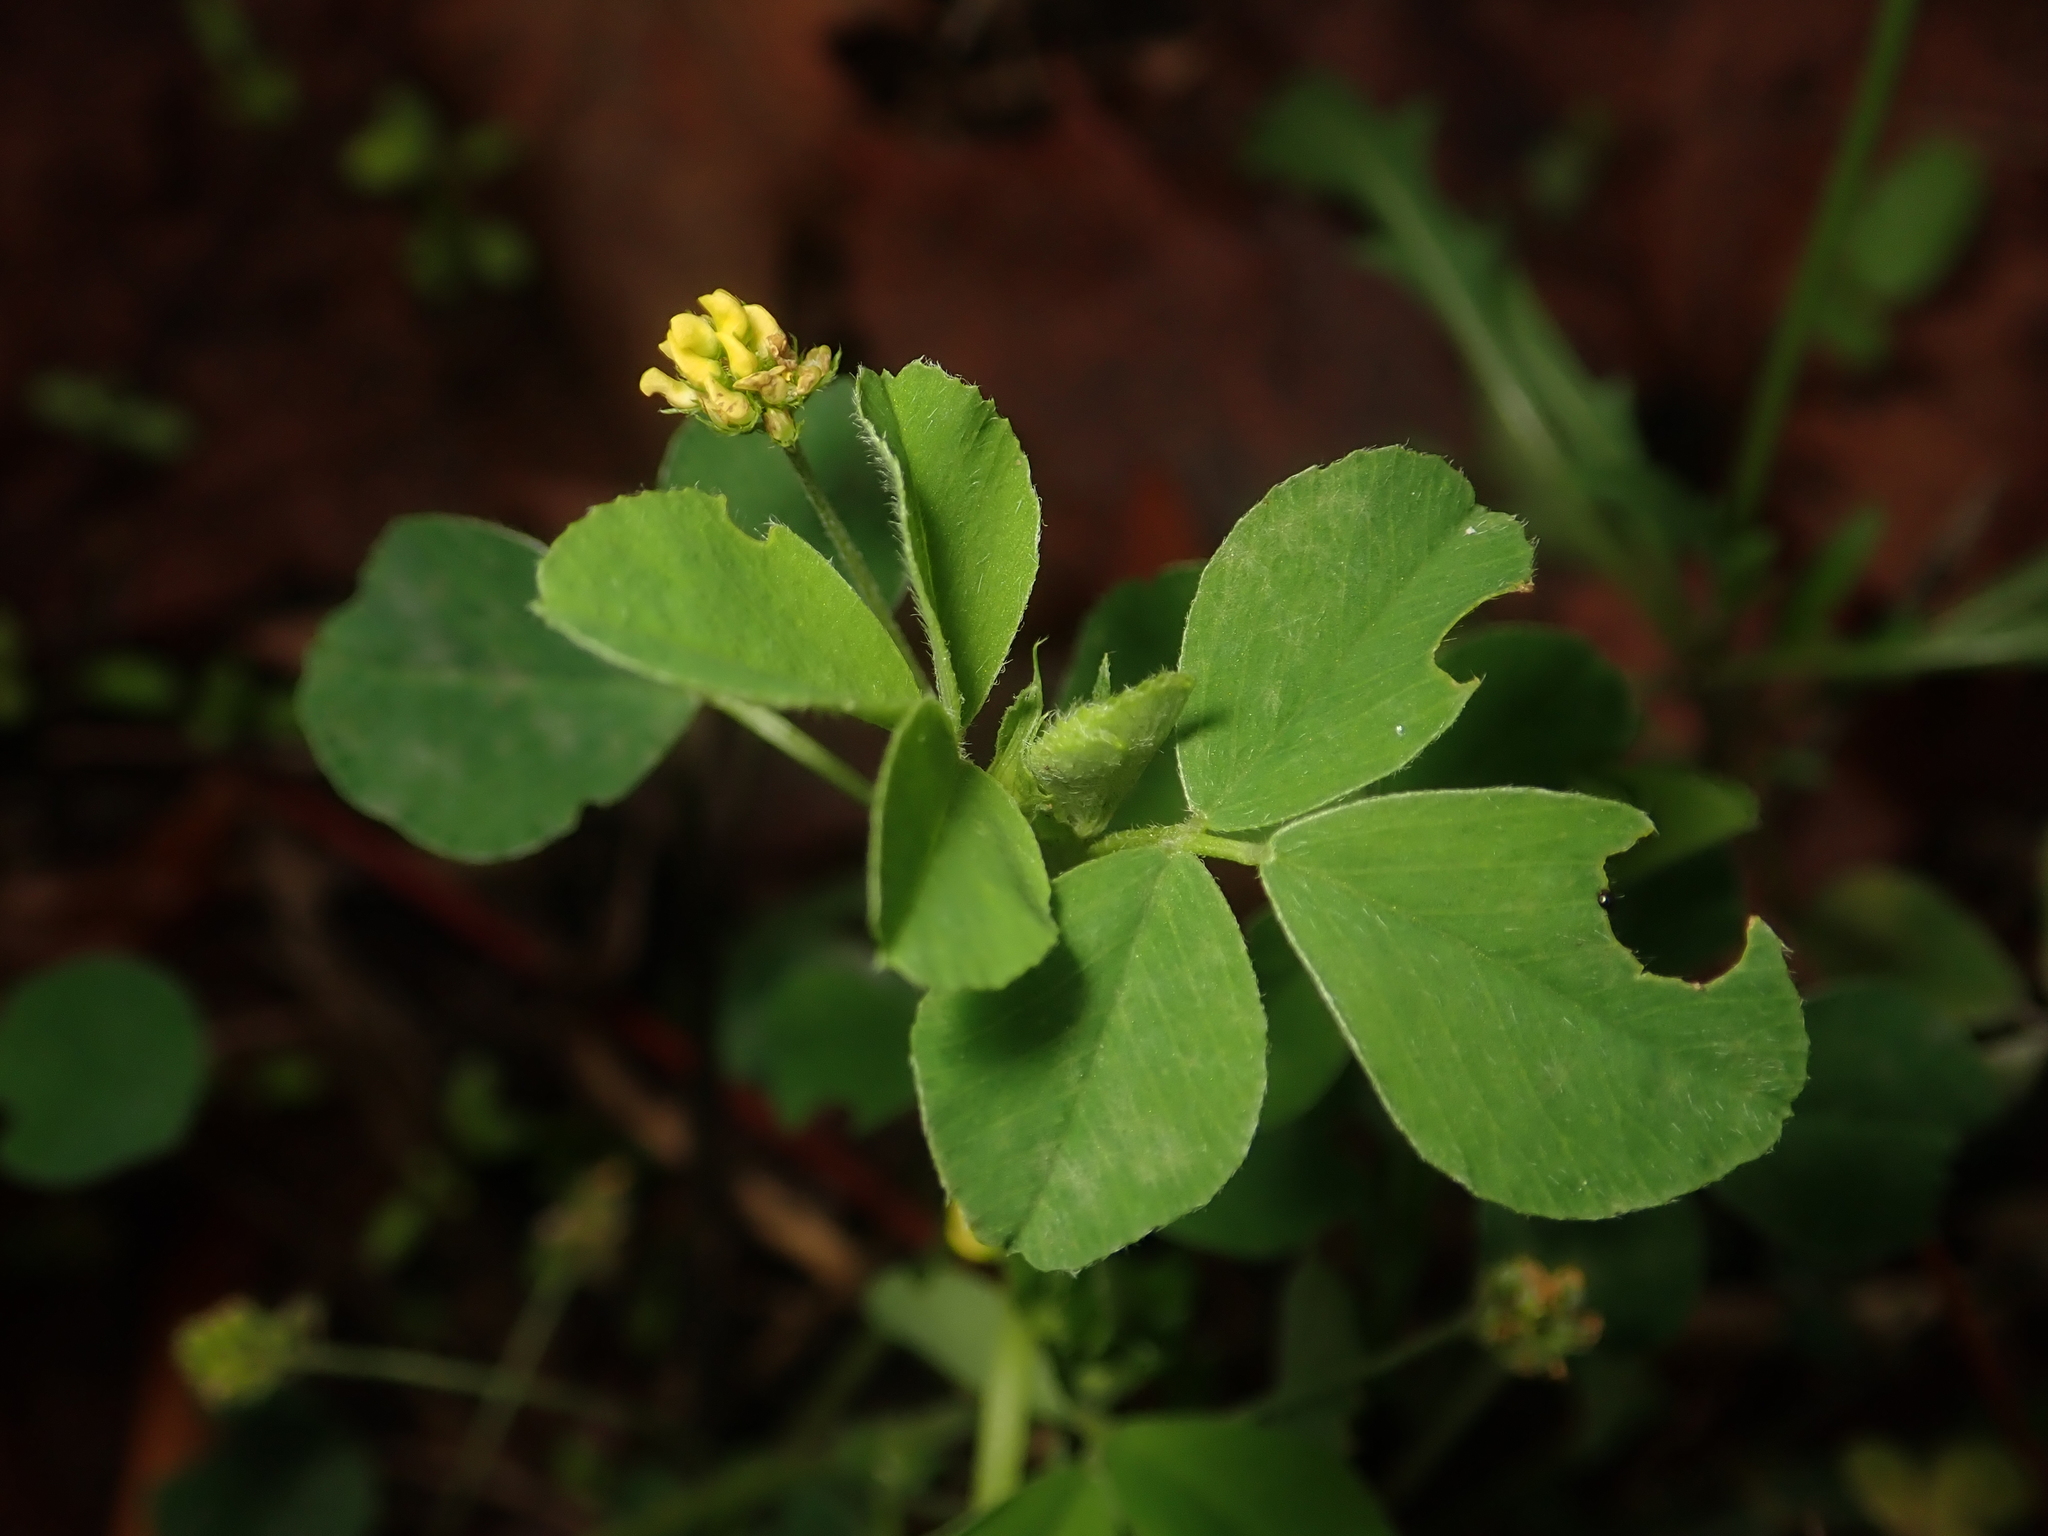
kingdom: Plantae
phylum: Tracheophyta
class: Magnoliopsida
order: Fabales
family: Fabaceae
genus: Medicago
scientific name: Medicago lupulina
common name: Black medick
